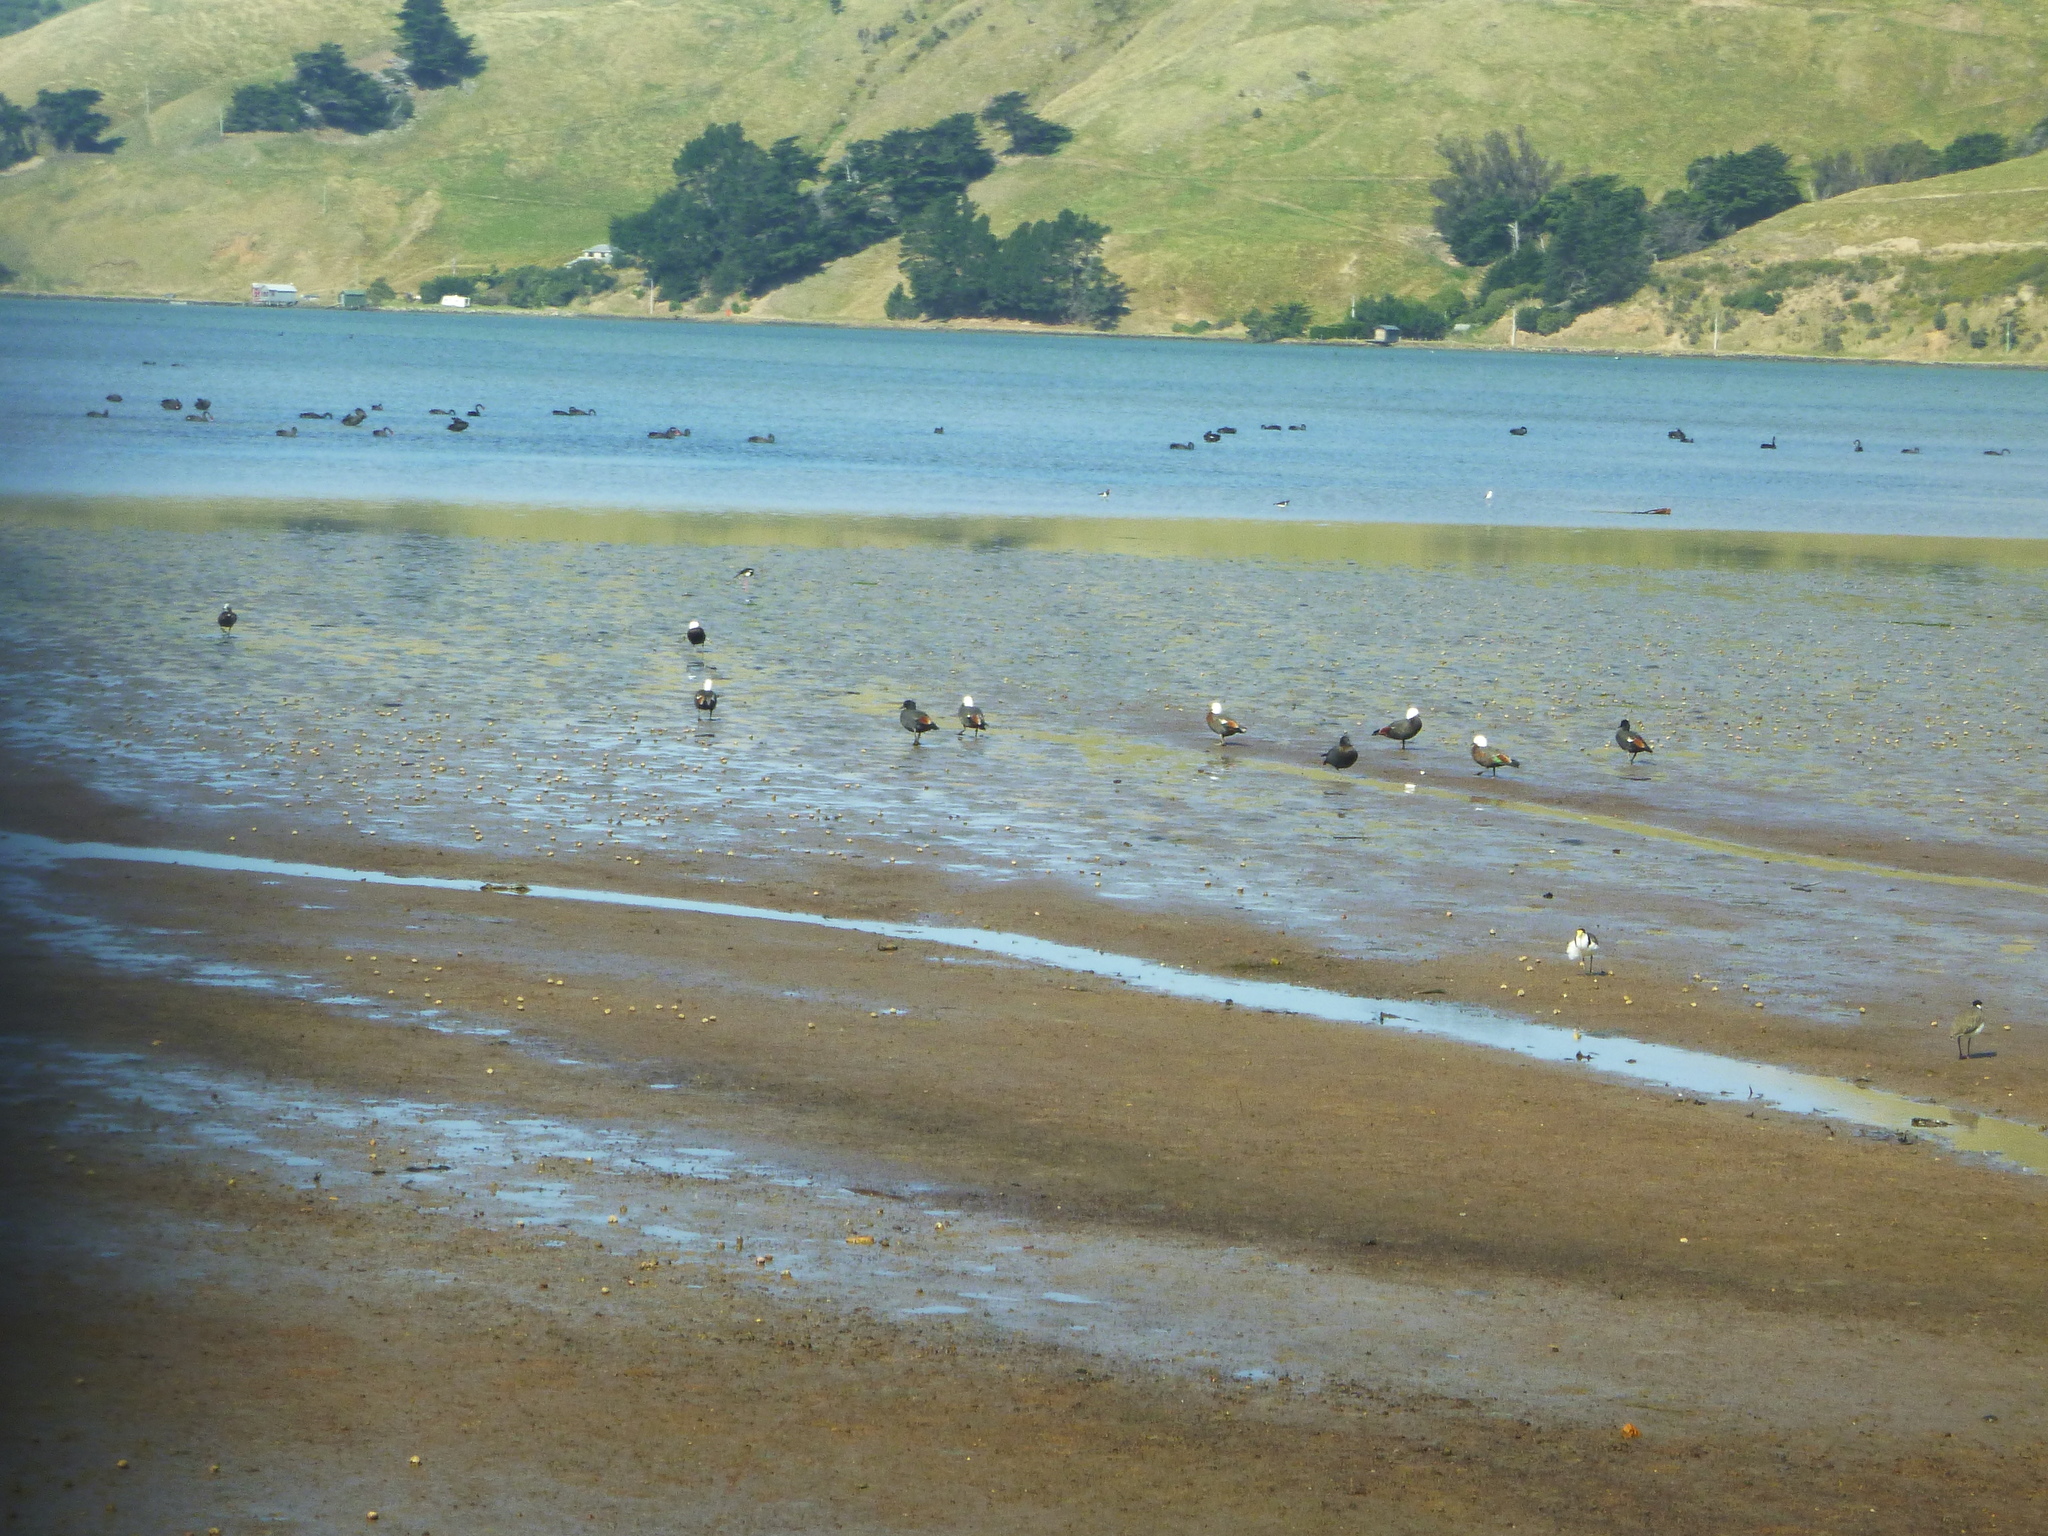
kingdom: Animalia
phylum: Chordata
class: Aves
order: Anseriformes
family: Anatidae
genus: Tadorna
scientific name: Tadorna variegata
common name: Paradise shelduck
